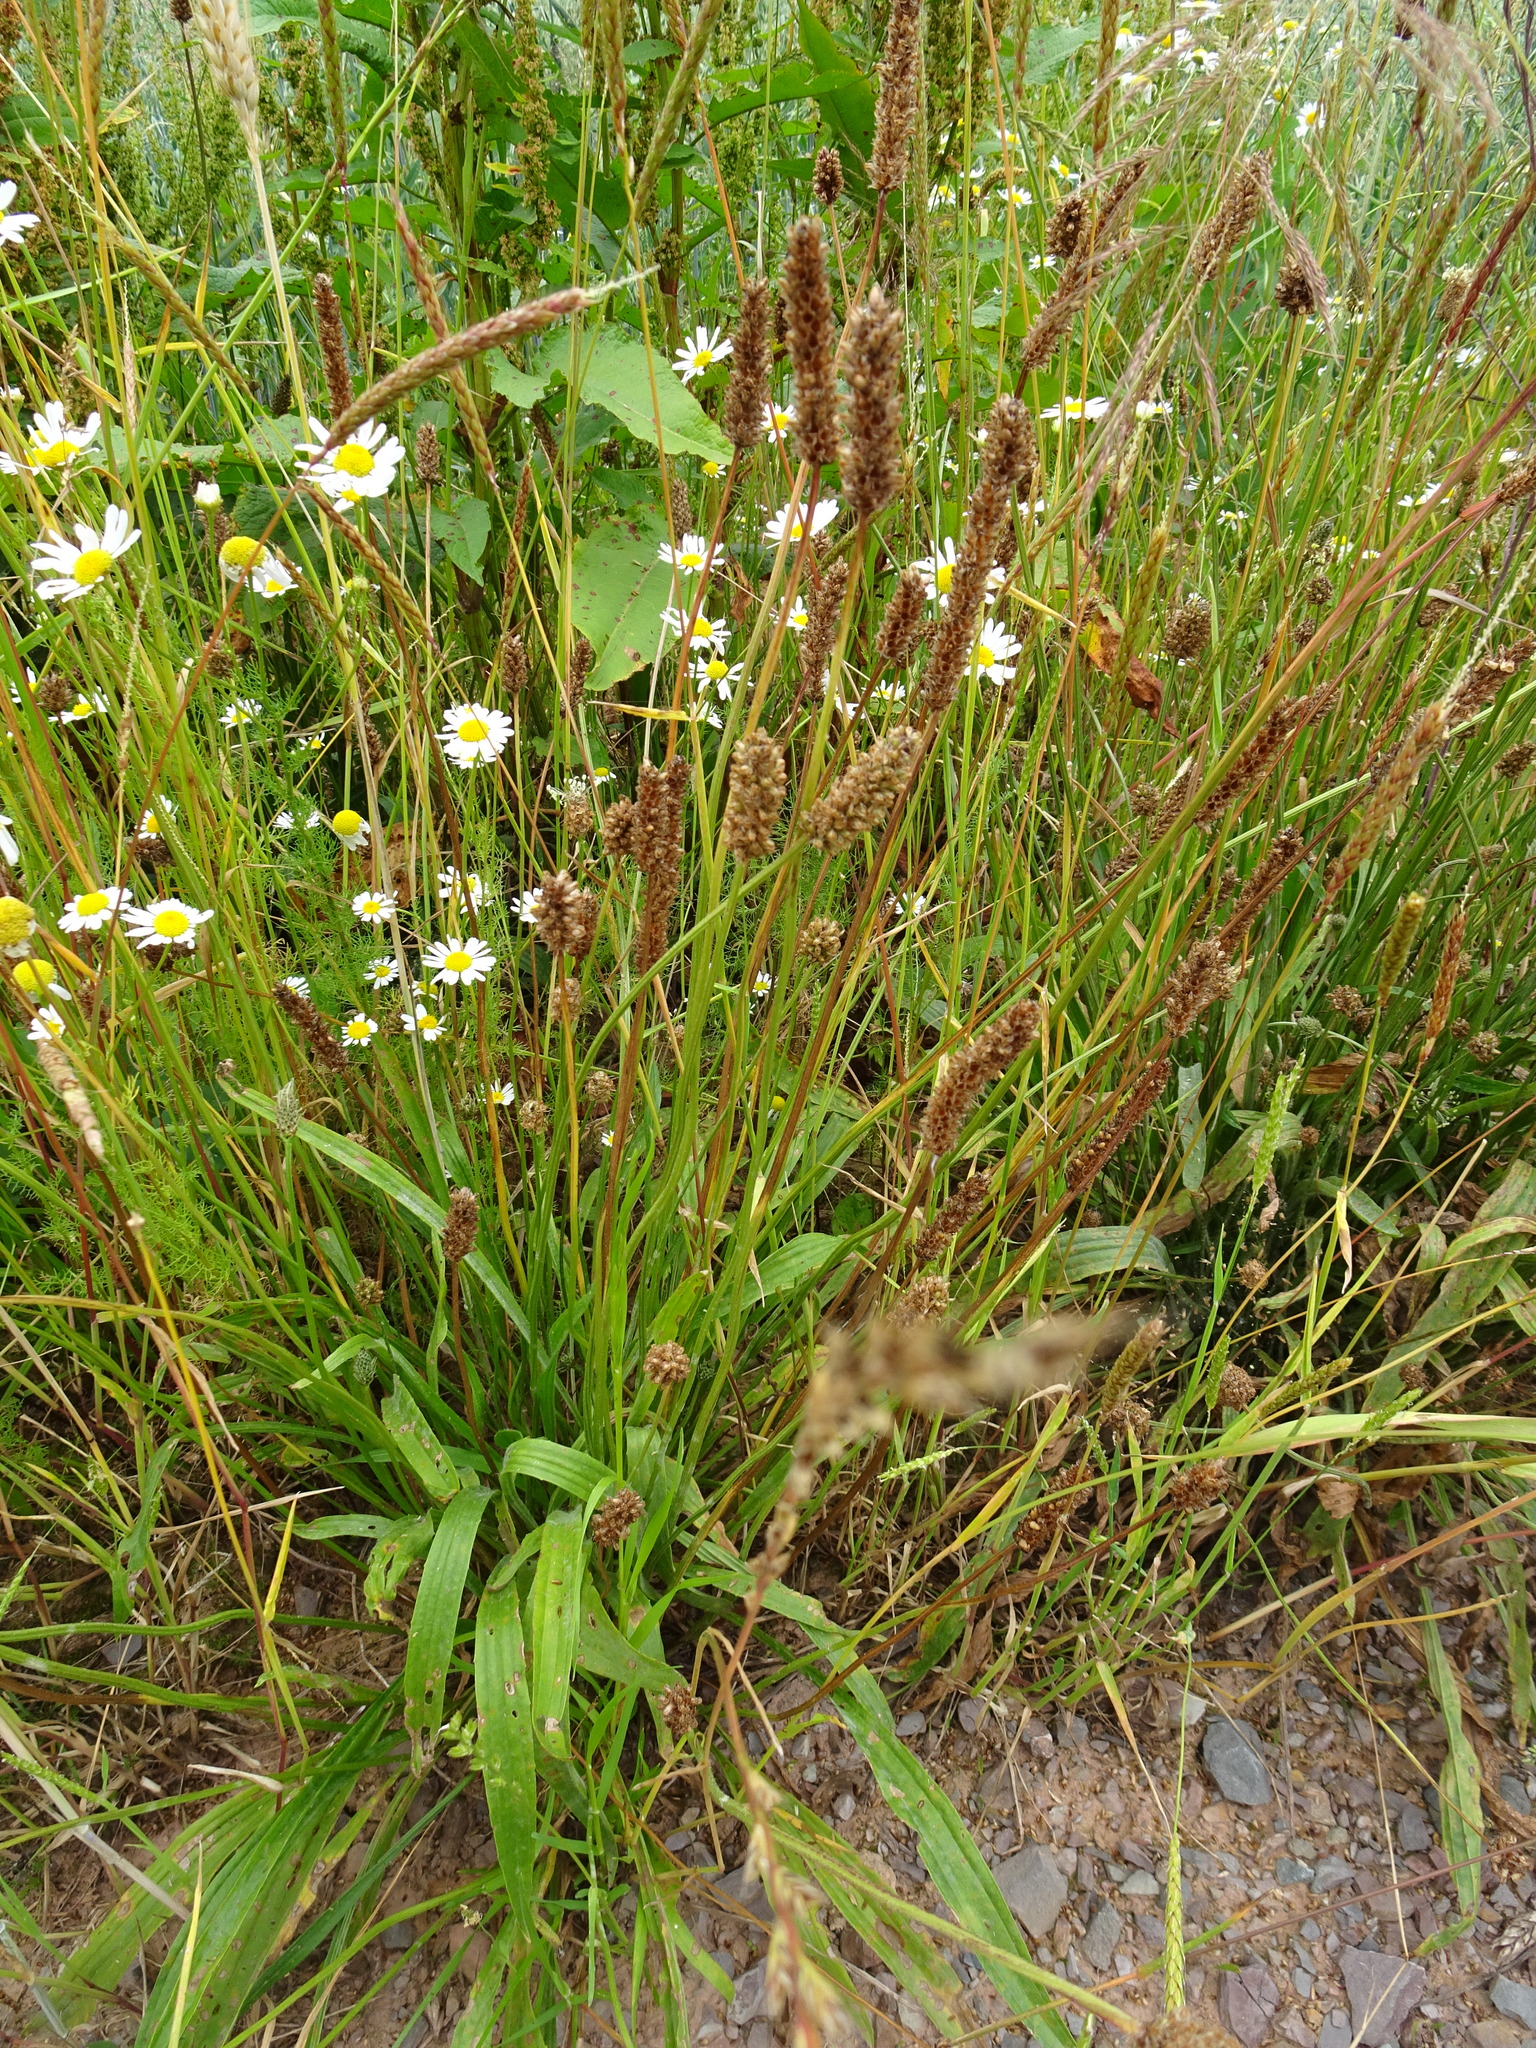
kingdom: Plantae
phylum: Tracheophyta
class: Magnoliopsida
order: Lamiales
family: Plantaginaceae
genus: Plantago
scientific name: Plantago lanceolata
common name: Ribwort plantain
